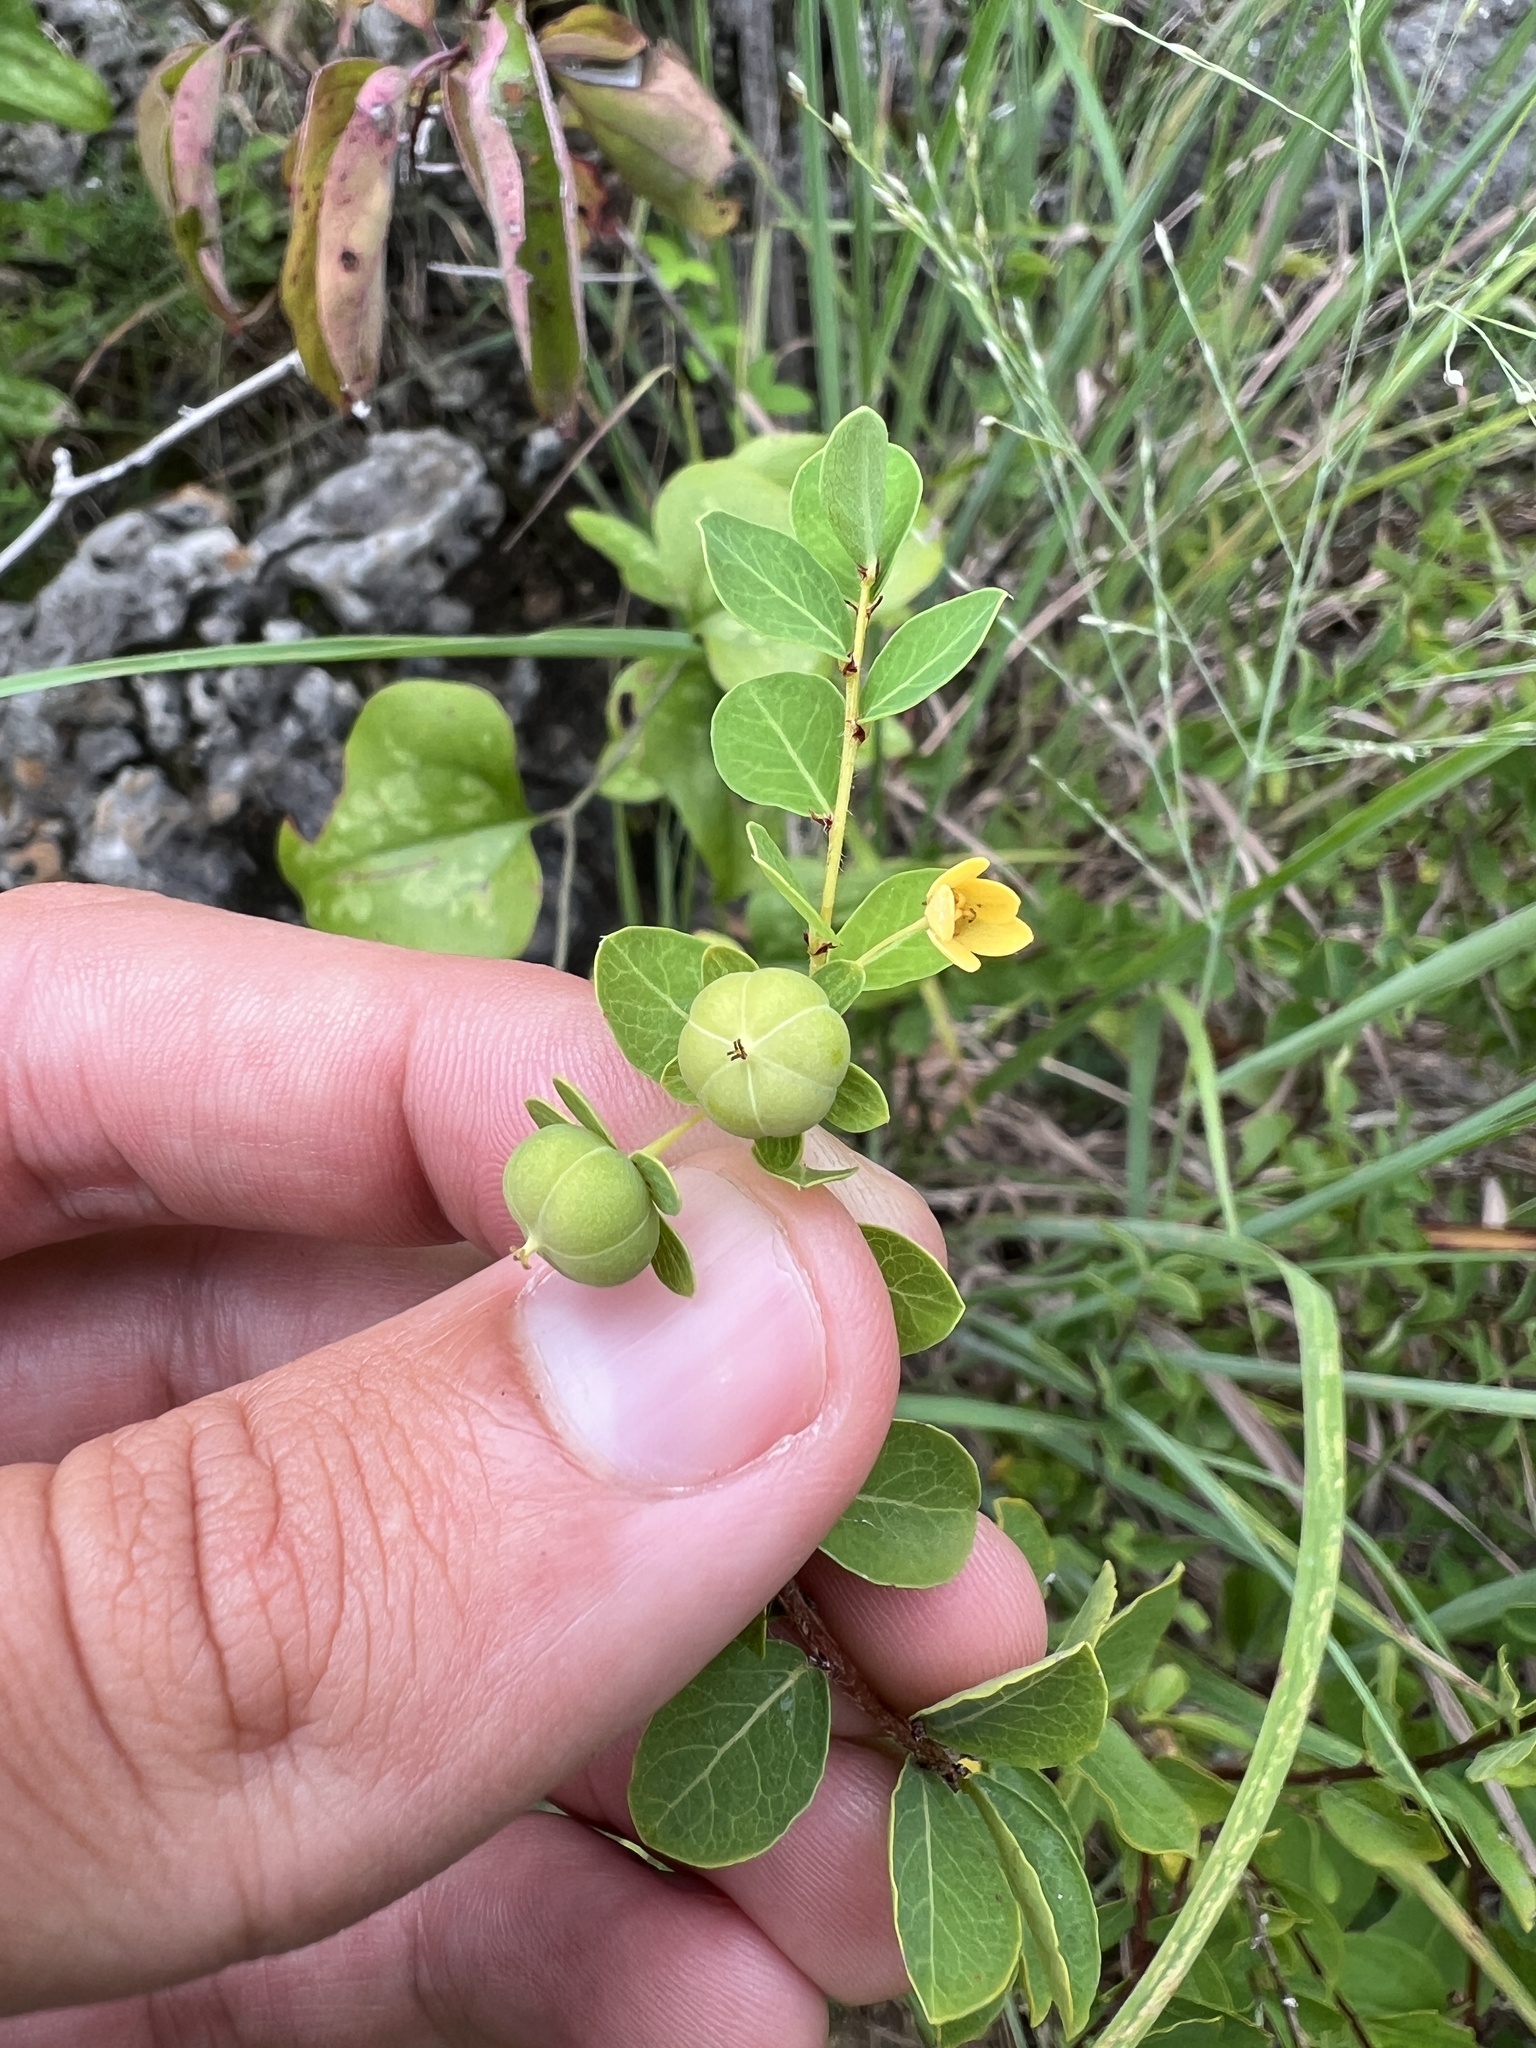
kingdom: Plantae
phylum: Tracheophyta
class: Magnoliopsida
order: Malpighiales
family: Phyllanthaceae
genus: Phyllanthopsis
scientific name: Phyllanthopsis phyllanthoides
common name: Missouri maidenbush
